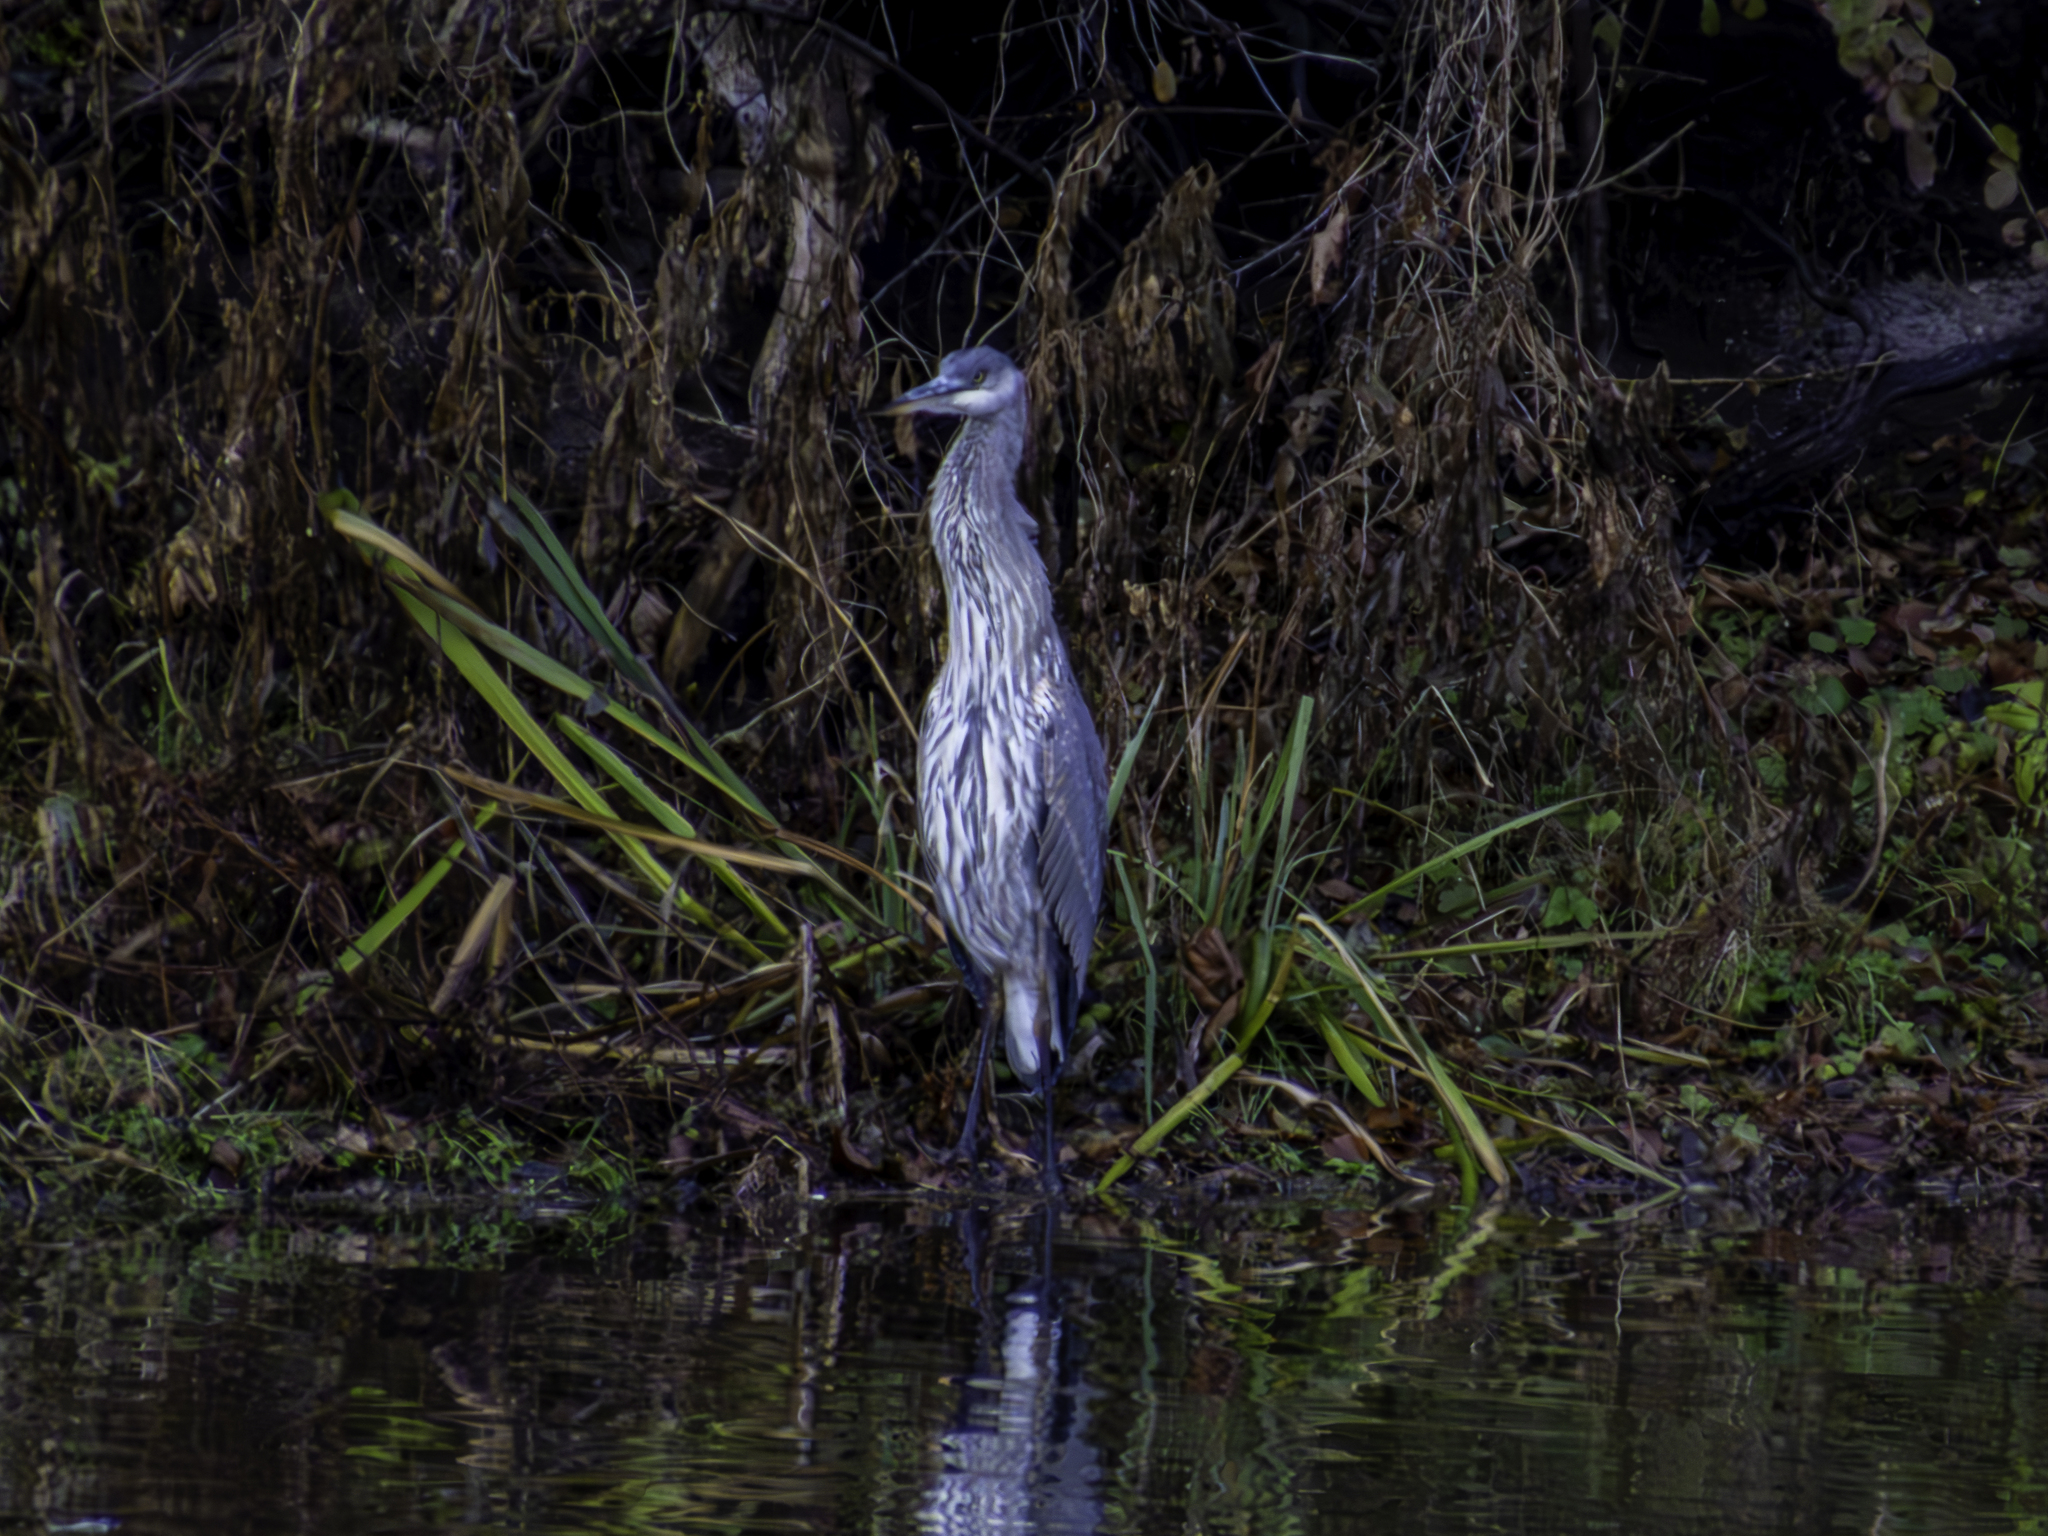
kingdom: Animalia
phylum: Chordata
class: Aves
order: Pelecaniformes
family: Ardeidae
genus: Ardea
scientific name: Ardea herodias
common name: Great blue heron
